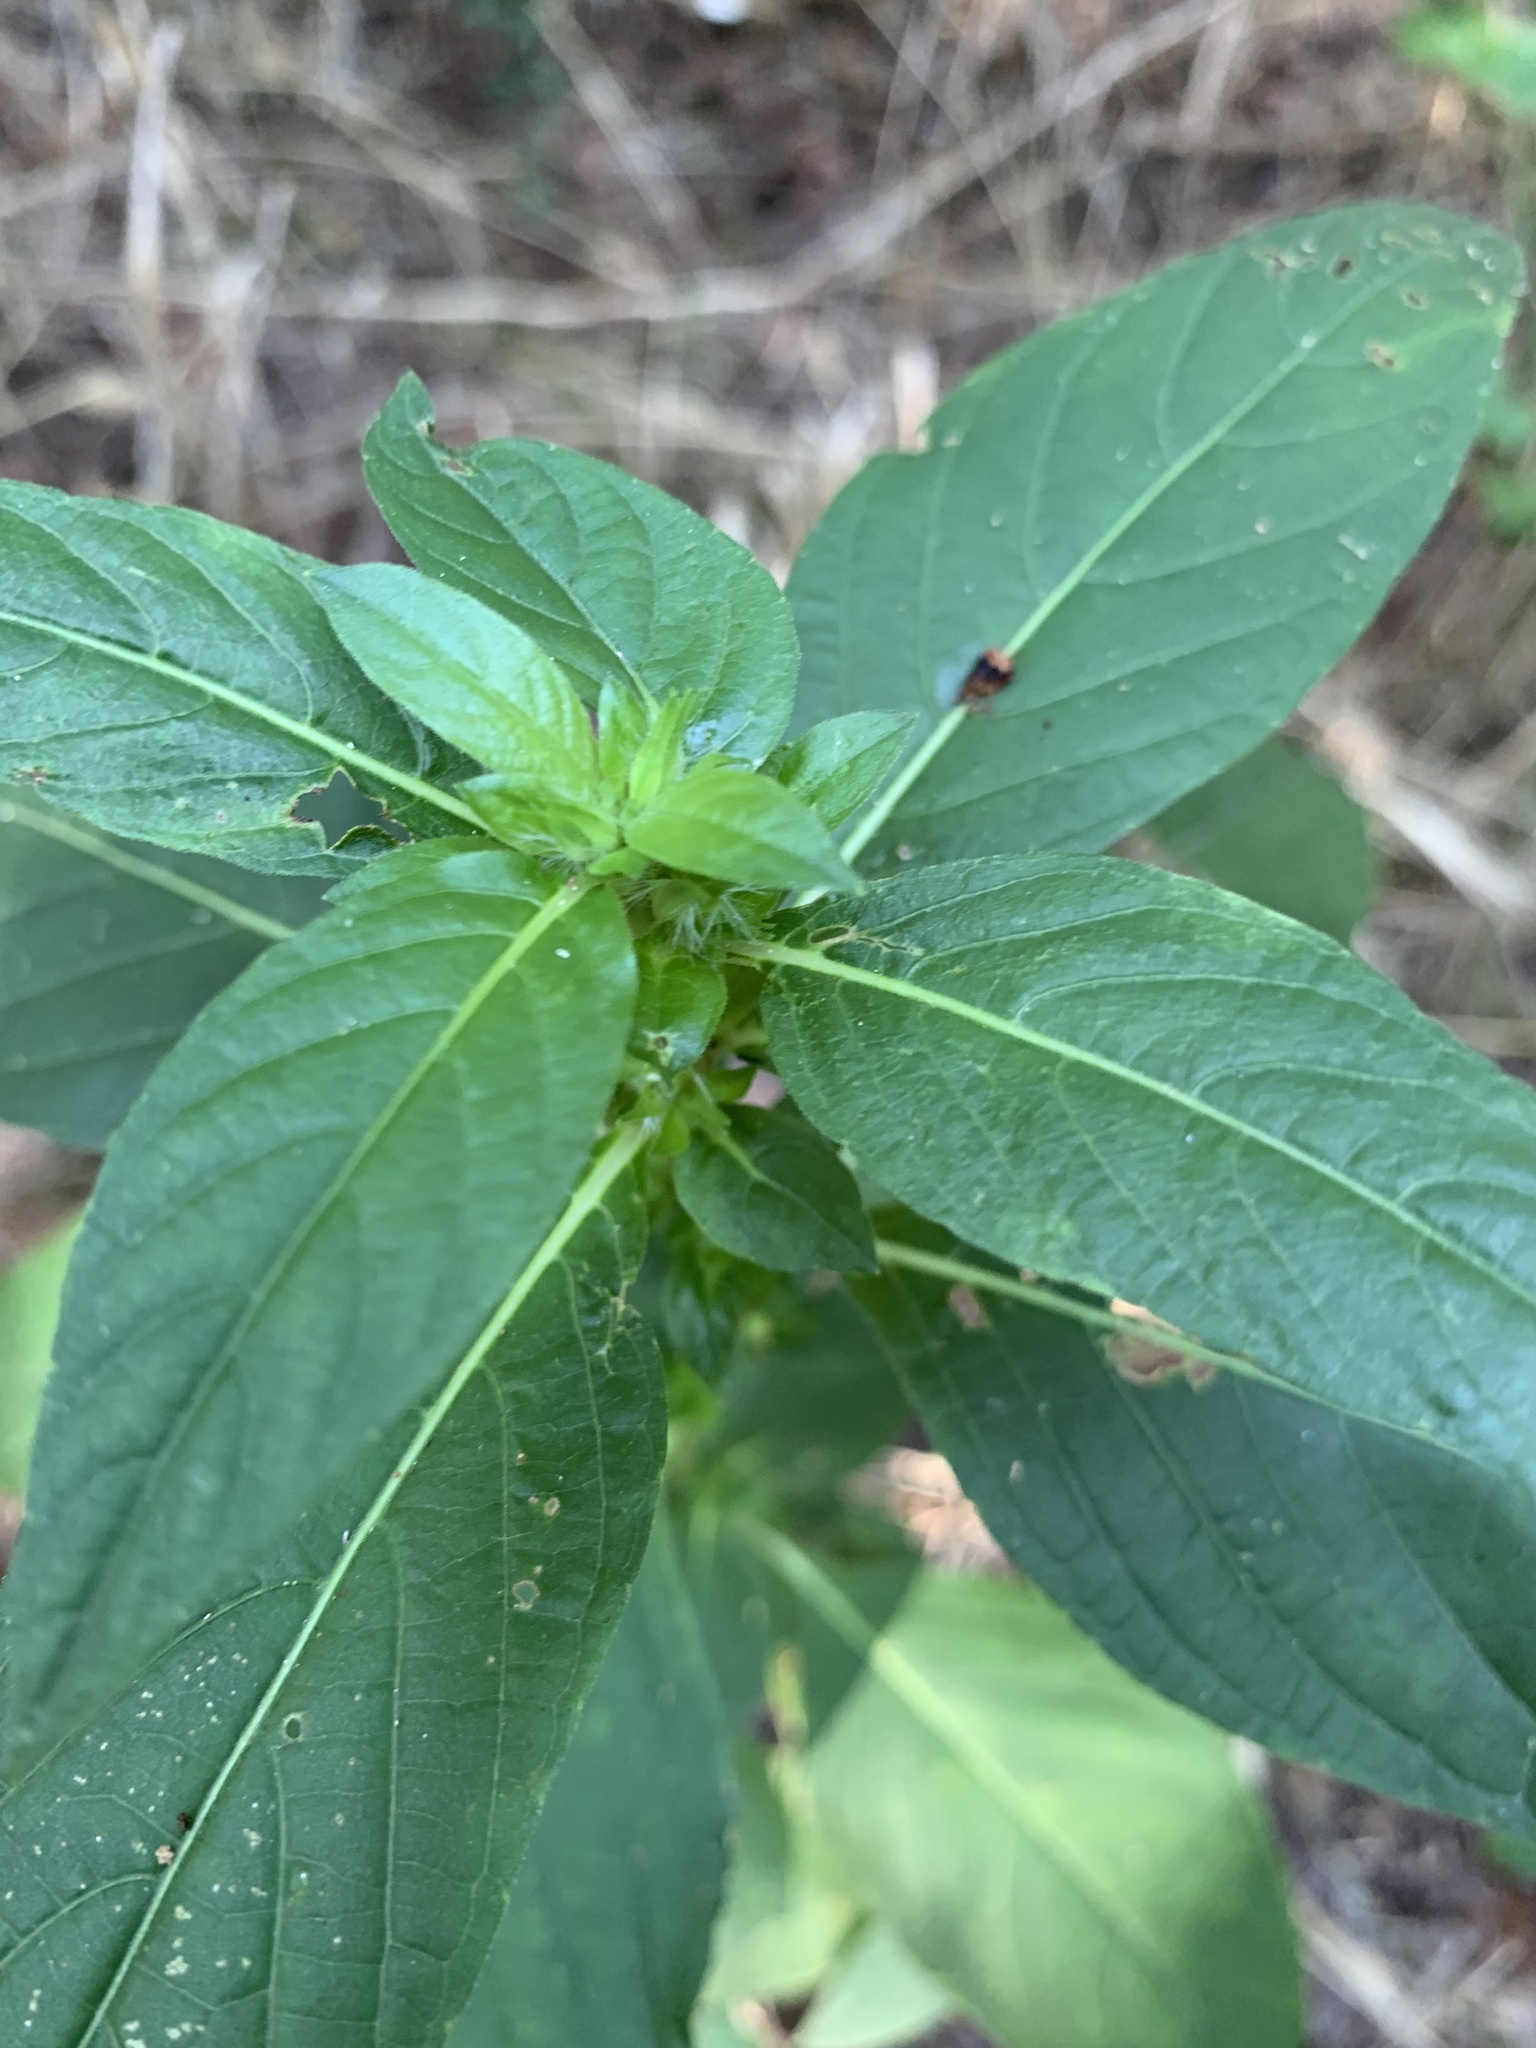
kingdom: Plantae
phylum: Tracheophyta
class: Magnoliopsida
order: Lamiales
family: Acanthaceae
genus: Ruellia
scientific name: Ruellia strepens
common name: Limestone wild petunia
